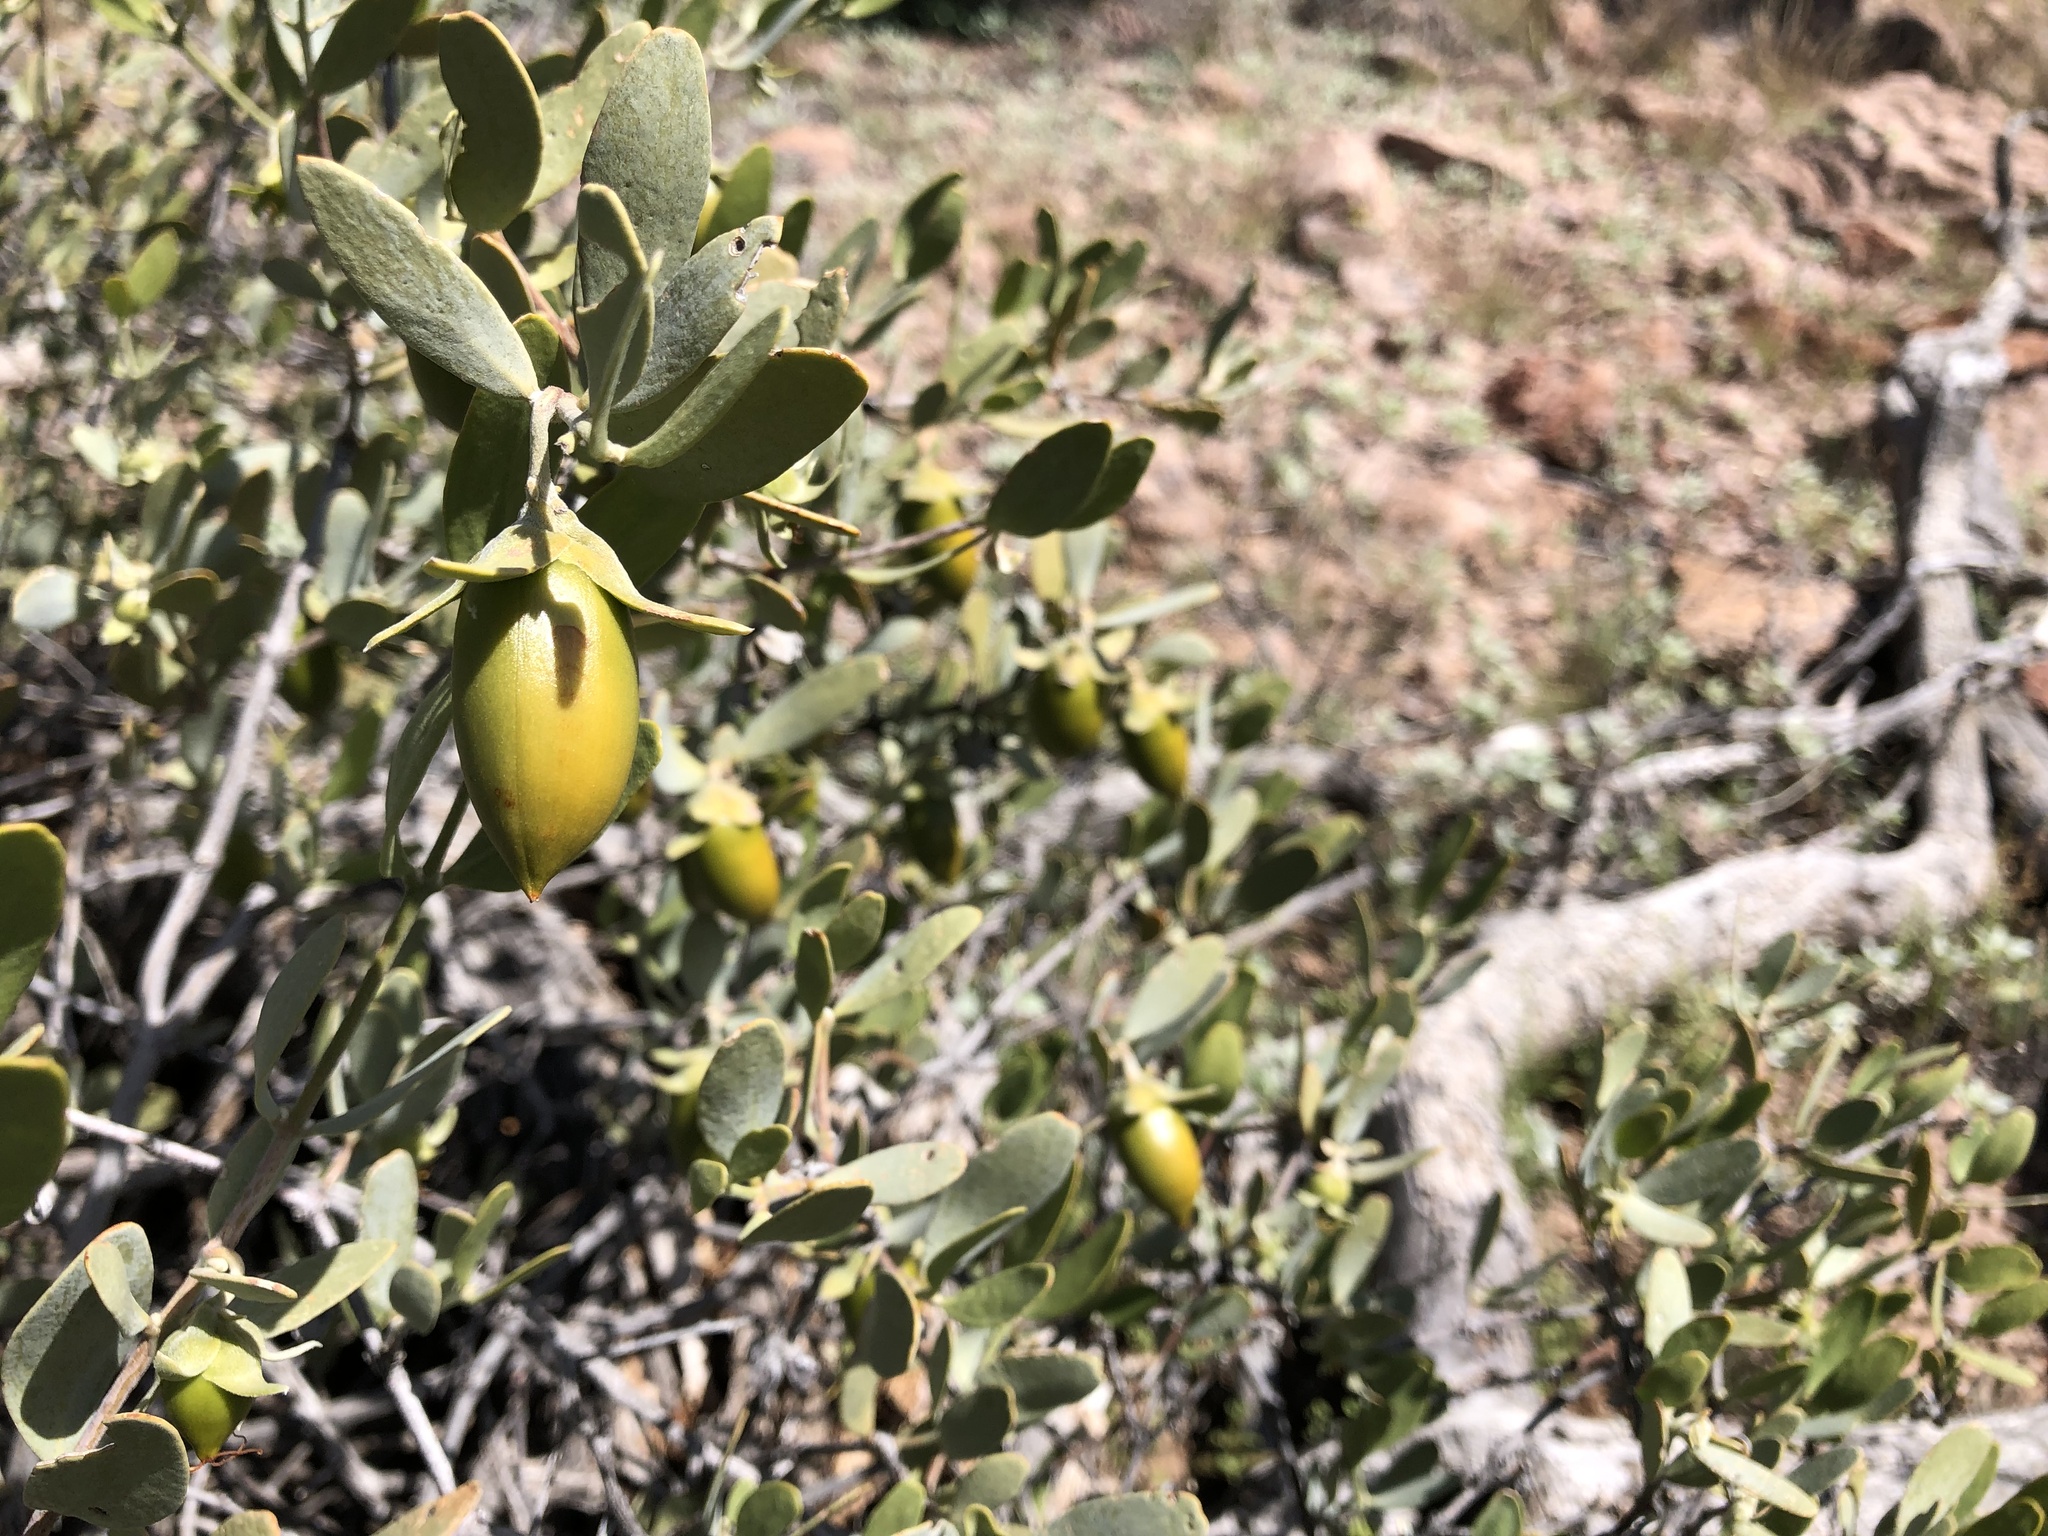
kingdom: Plantae
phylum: Tracheophyta
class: Magnoliopsida
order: Caryophyllales
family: Simmondsiaceae
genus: Simmondsia
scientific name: Simmondsia chinensis
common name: Jojoba
